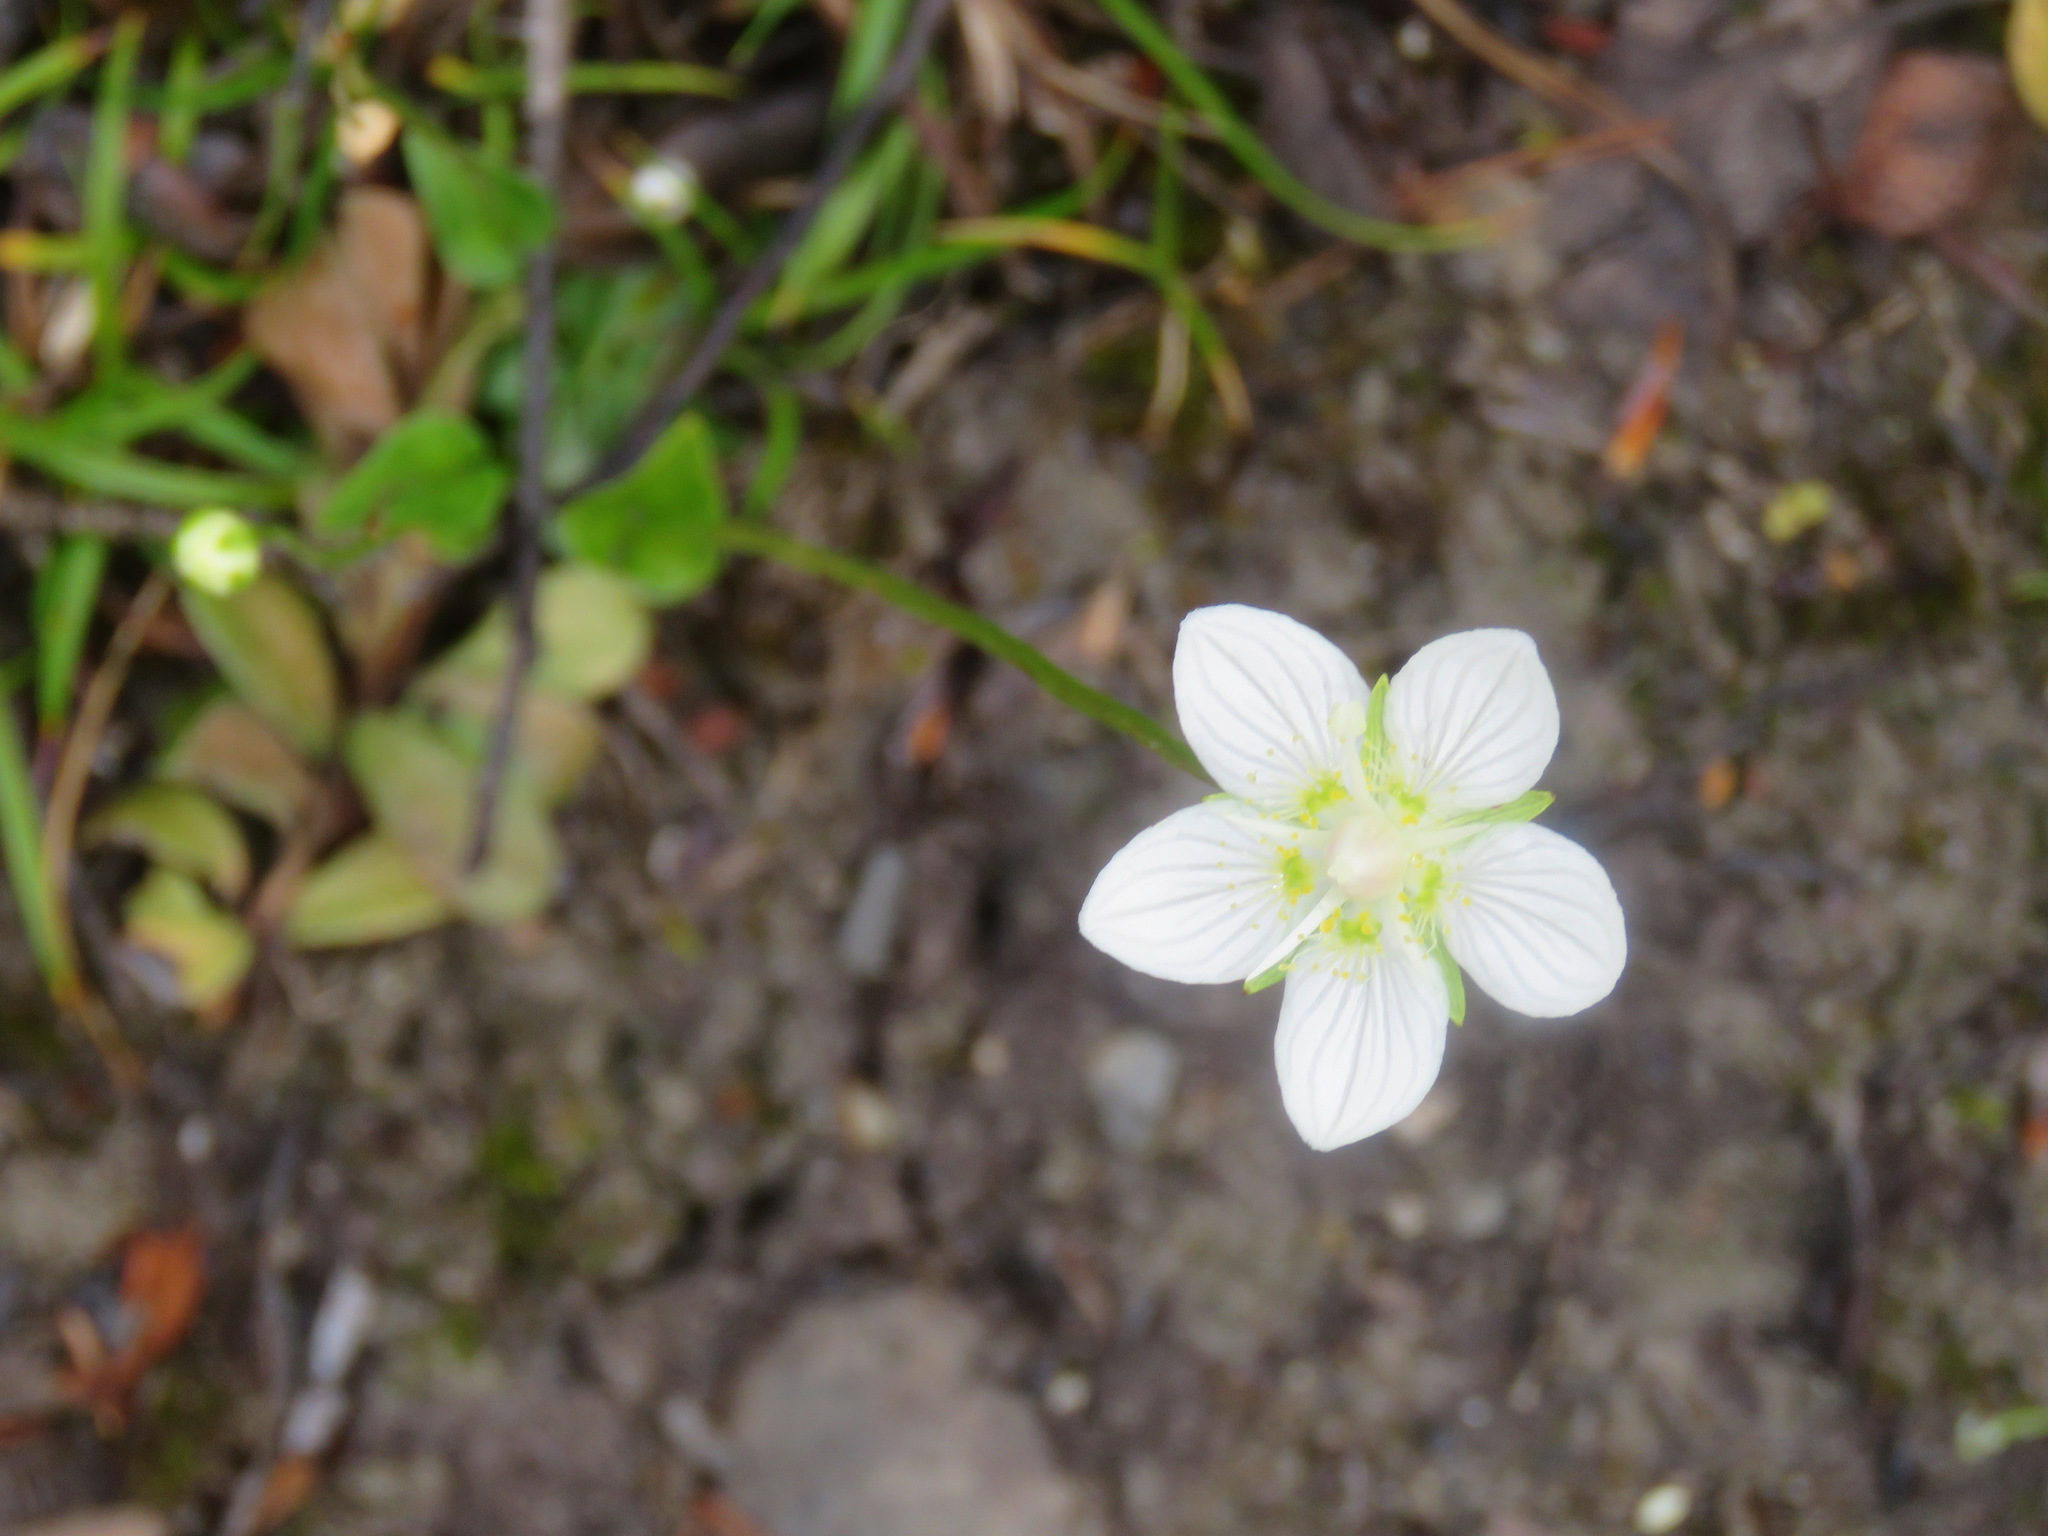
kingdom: Plantae
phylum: Tracheophyta
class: Magnoliopsida
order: Celastrales
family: Parnassiaceae
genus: Parnassia
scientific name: Parnassia palustris
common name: Grass-of-parnassus
